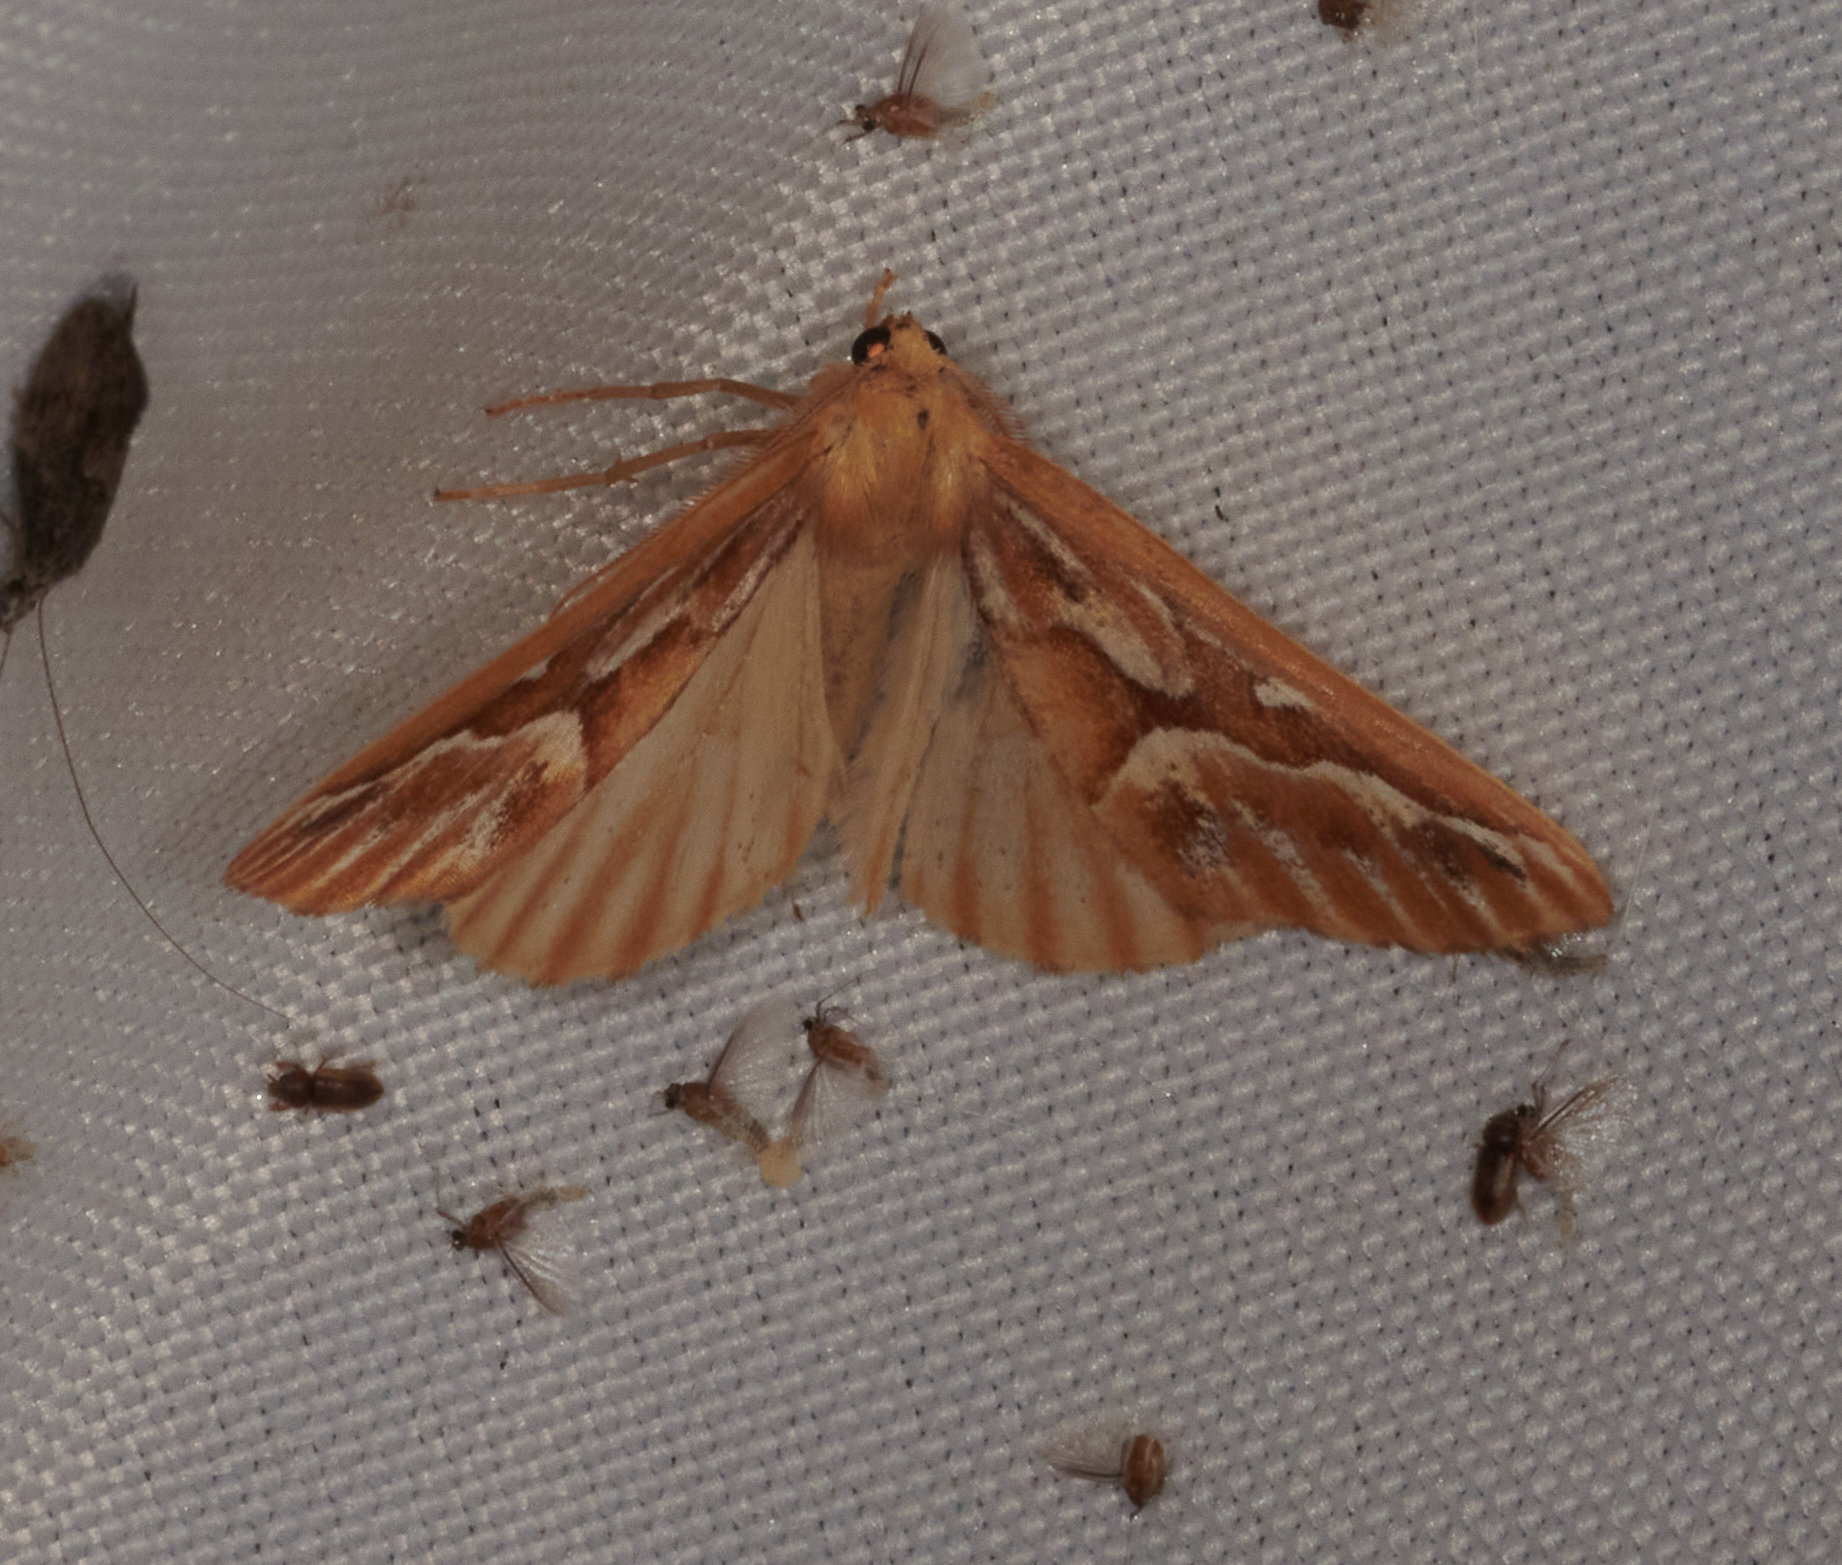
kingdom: Animalia
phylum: Arthropoda
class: Insecta
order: Lepidoptera
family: Geometridae
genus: Caripeta
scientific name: Caripeta piniata
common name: Northern pine looper moth
